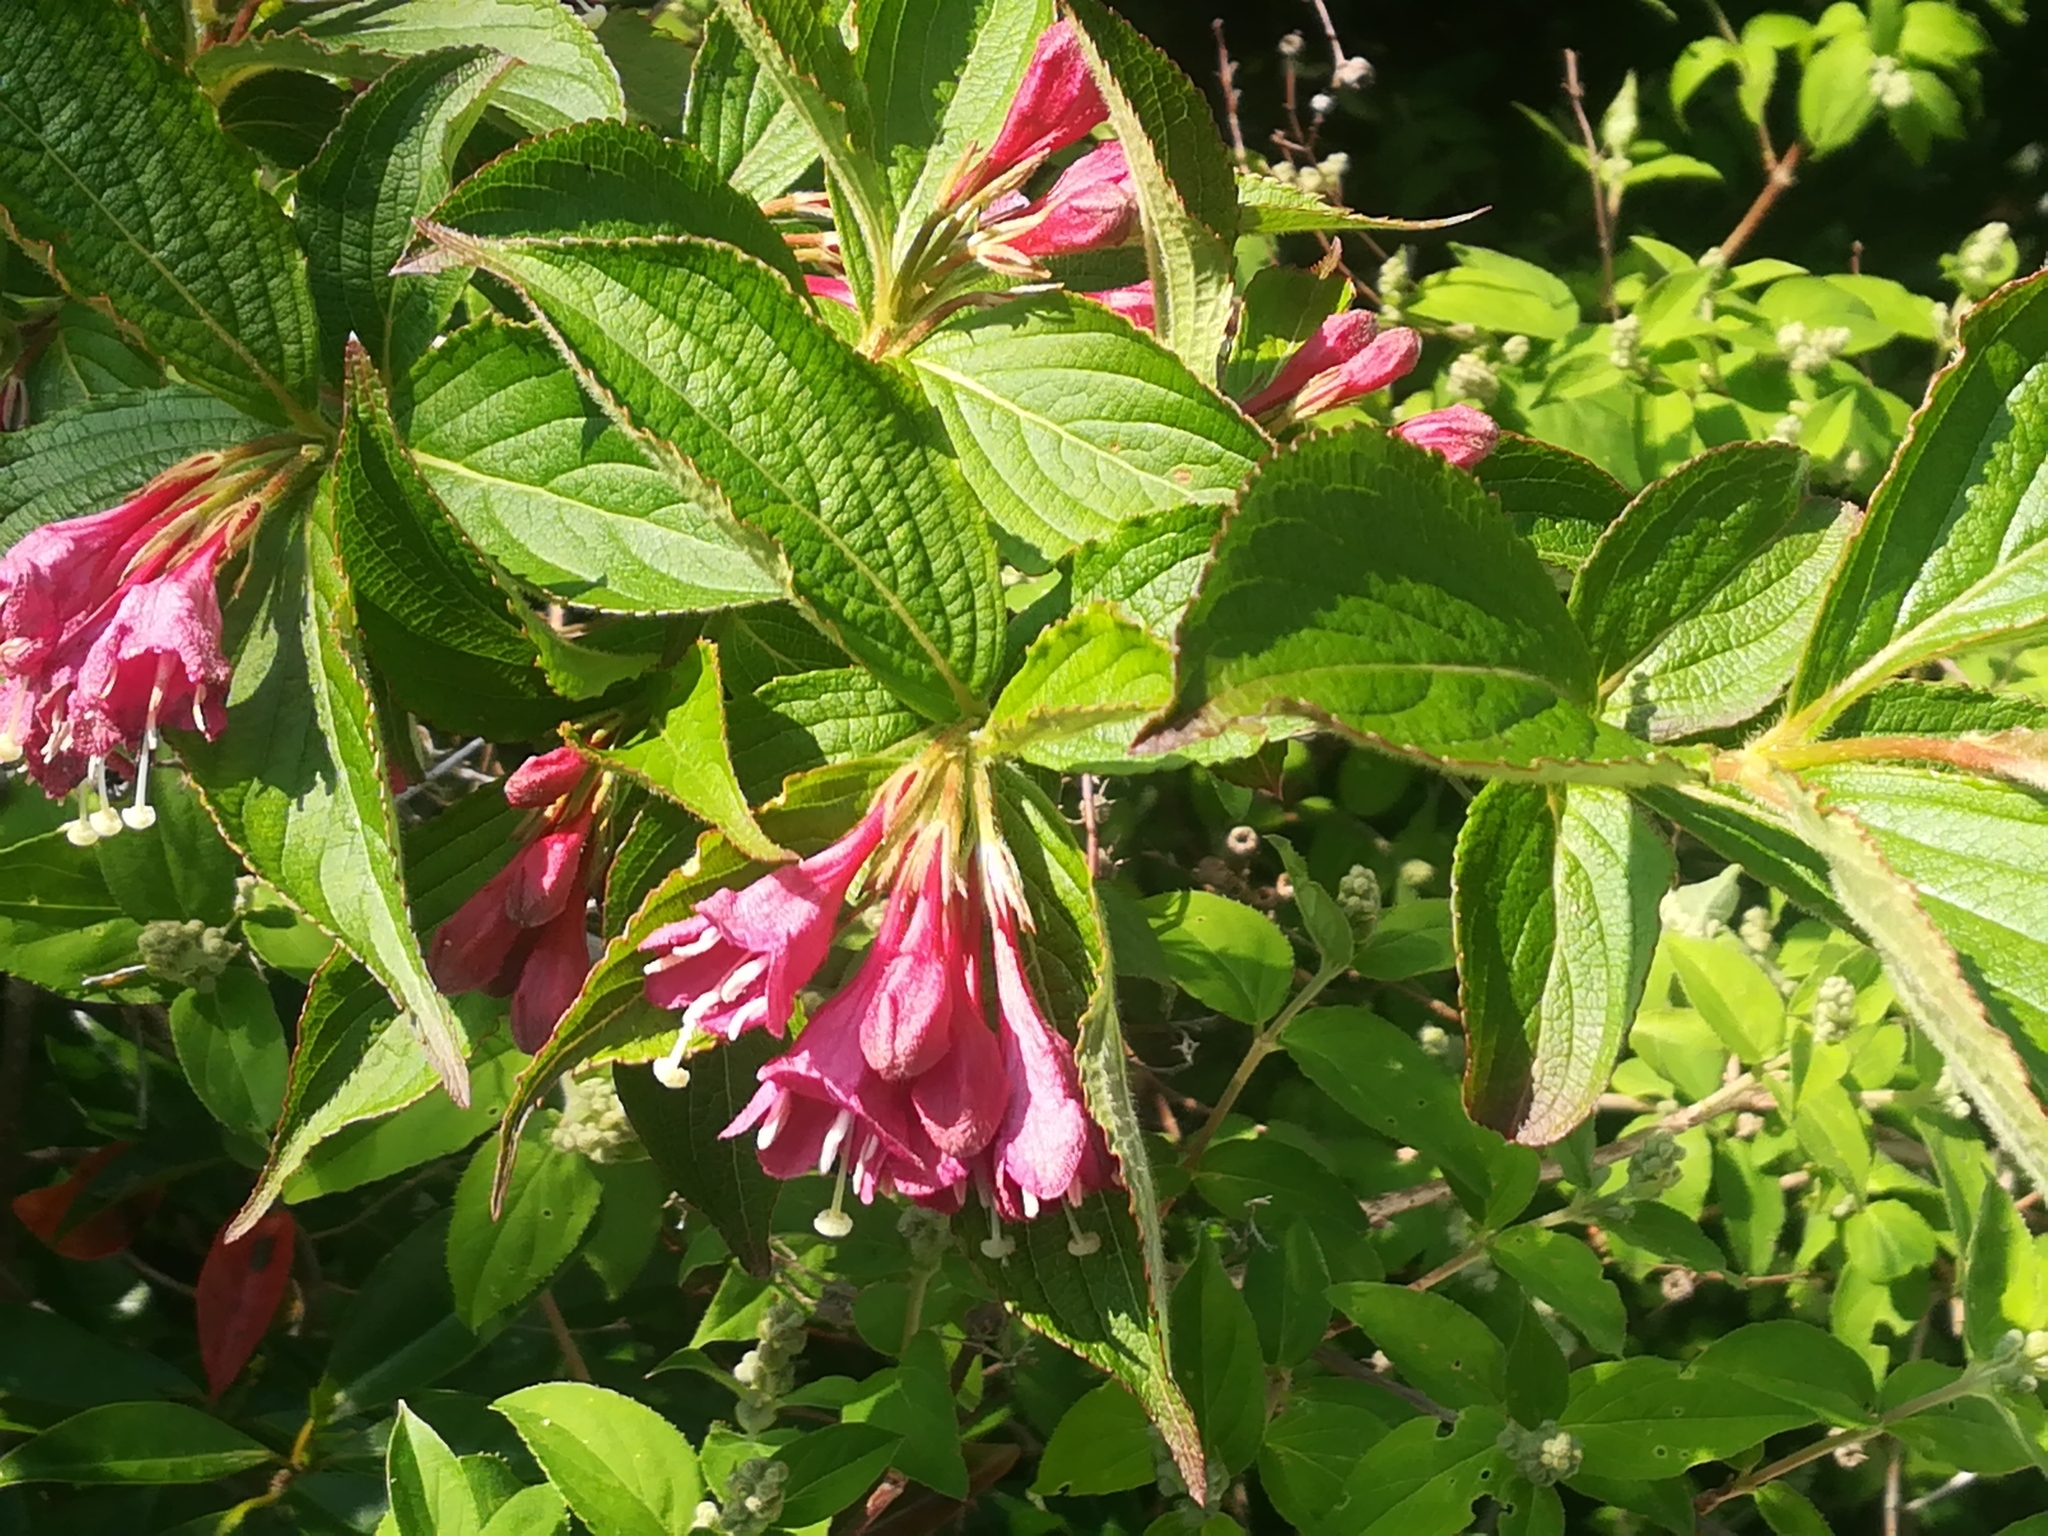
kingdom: Plantae
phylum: Tracheophyta
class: Magnoliopsida
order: Dipsacales
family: Caprifoliaceae
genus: Weigela
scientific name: Weigela floribunda
